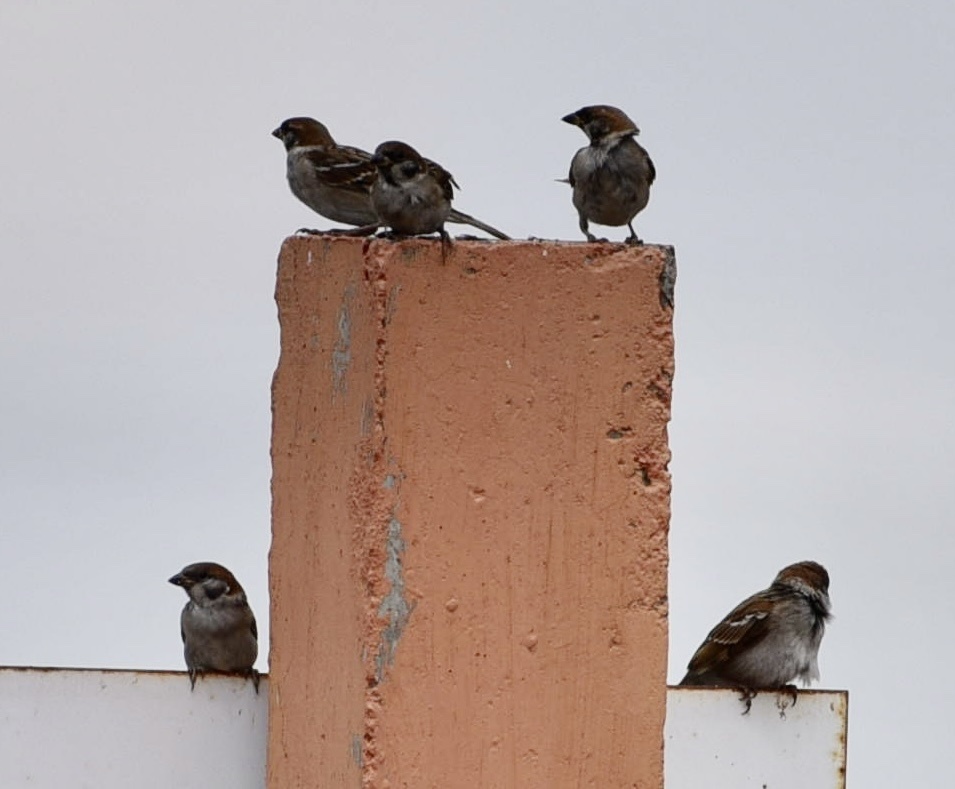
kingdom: Animalia
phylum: Chordata
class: Aves
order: Passeriformes
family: Passeridae
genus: Passer
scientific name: Passer montanus
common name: Eurasian tree sparrow
